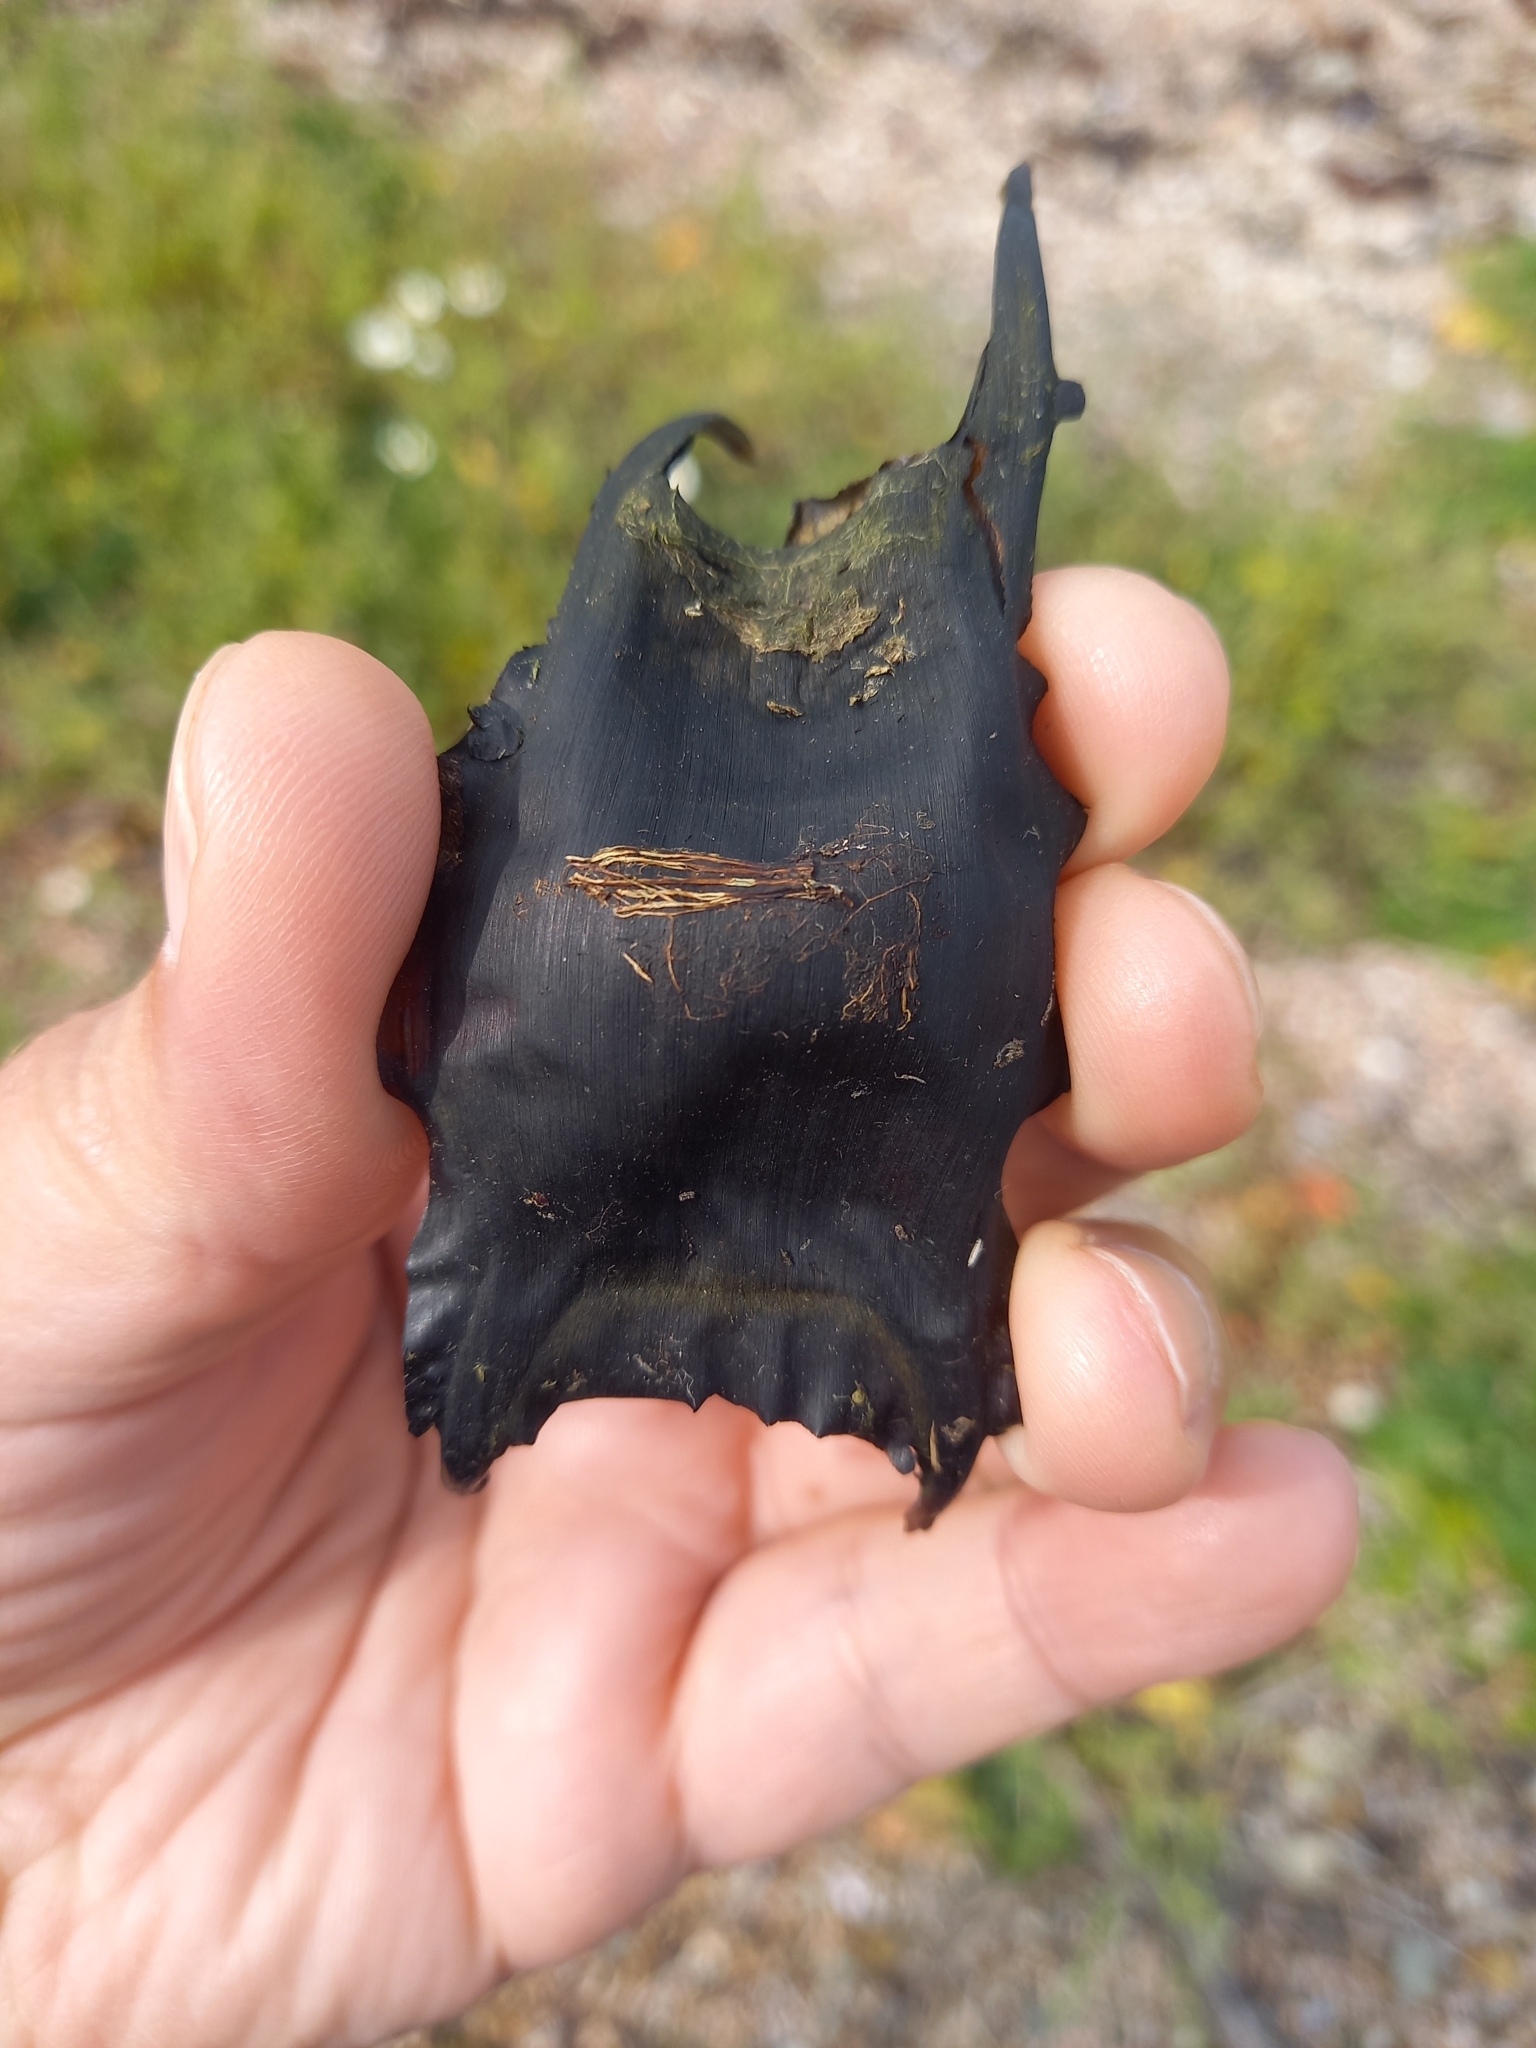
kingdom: Animalia
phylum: Chordata
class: Elasmobranchii
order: Rajiformes
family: Rajidae
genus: Raja
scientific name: Raja clavata
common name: Thornback ray
